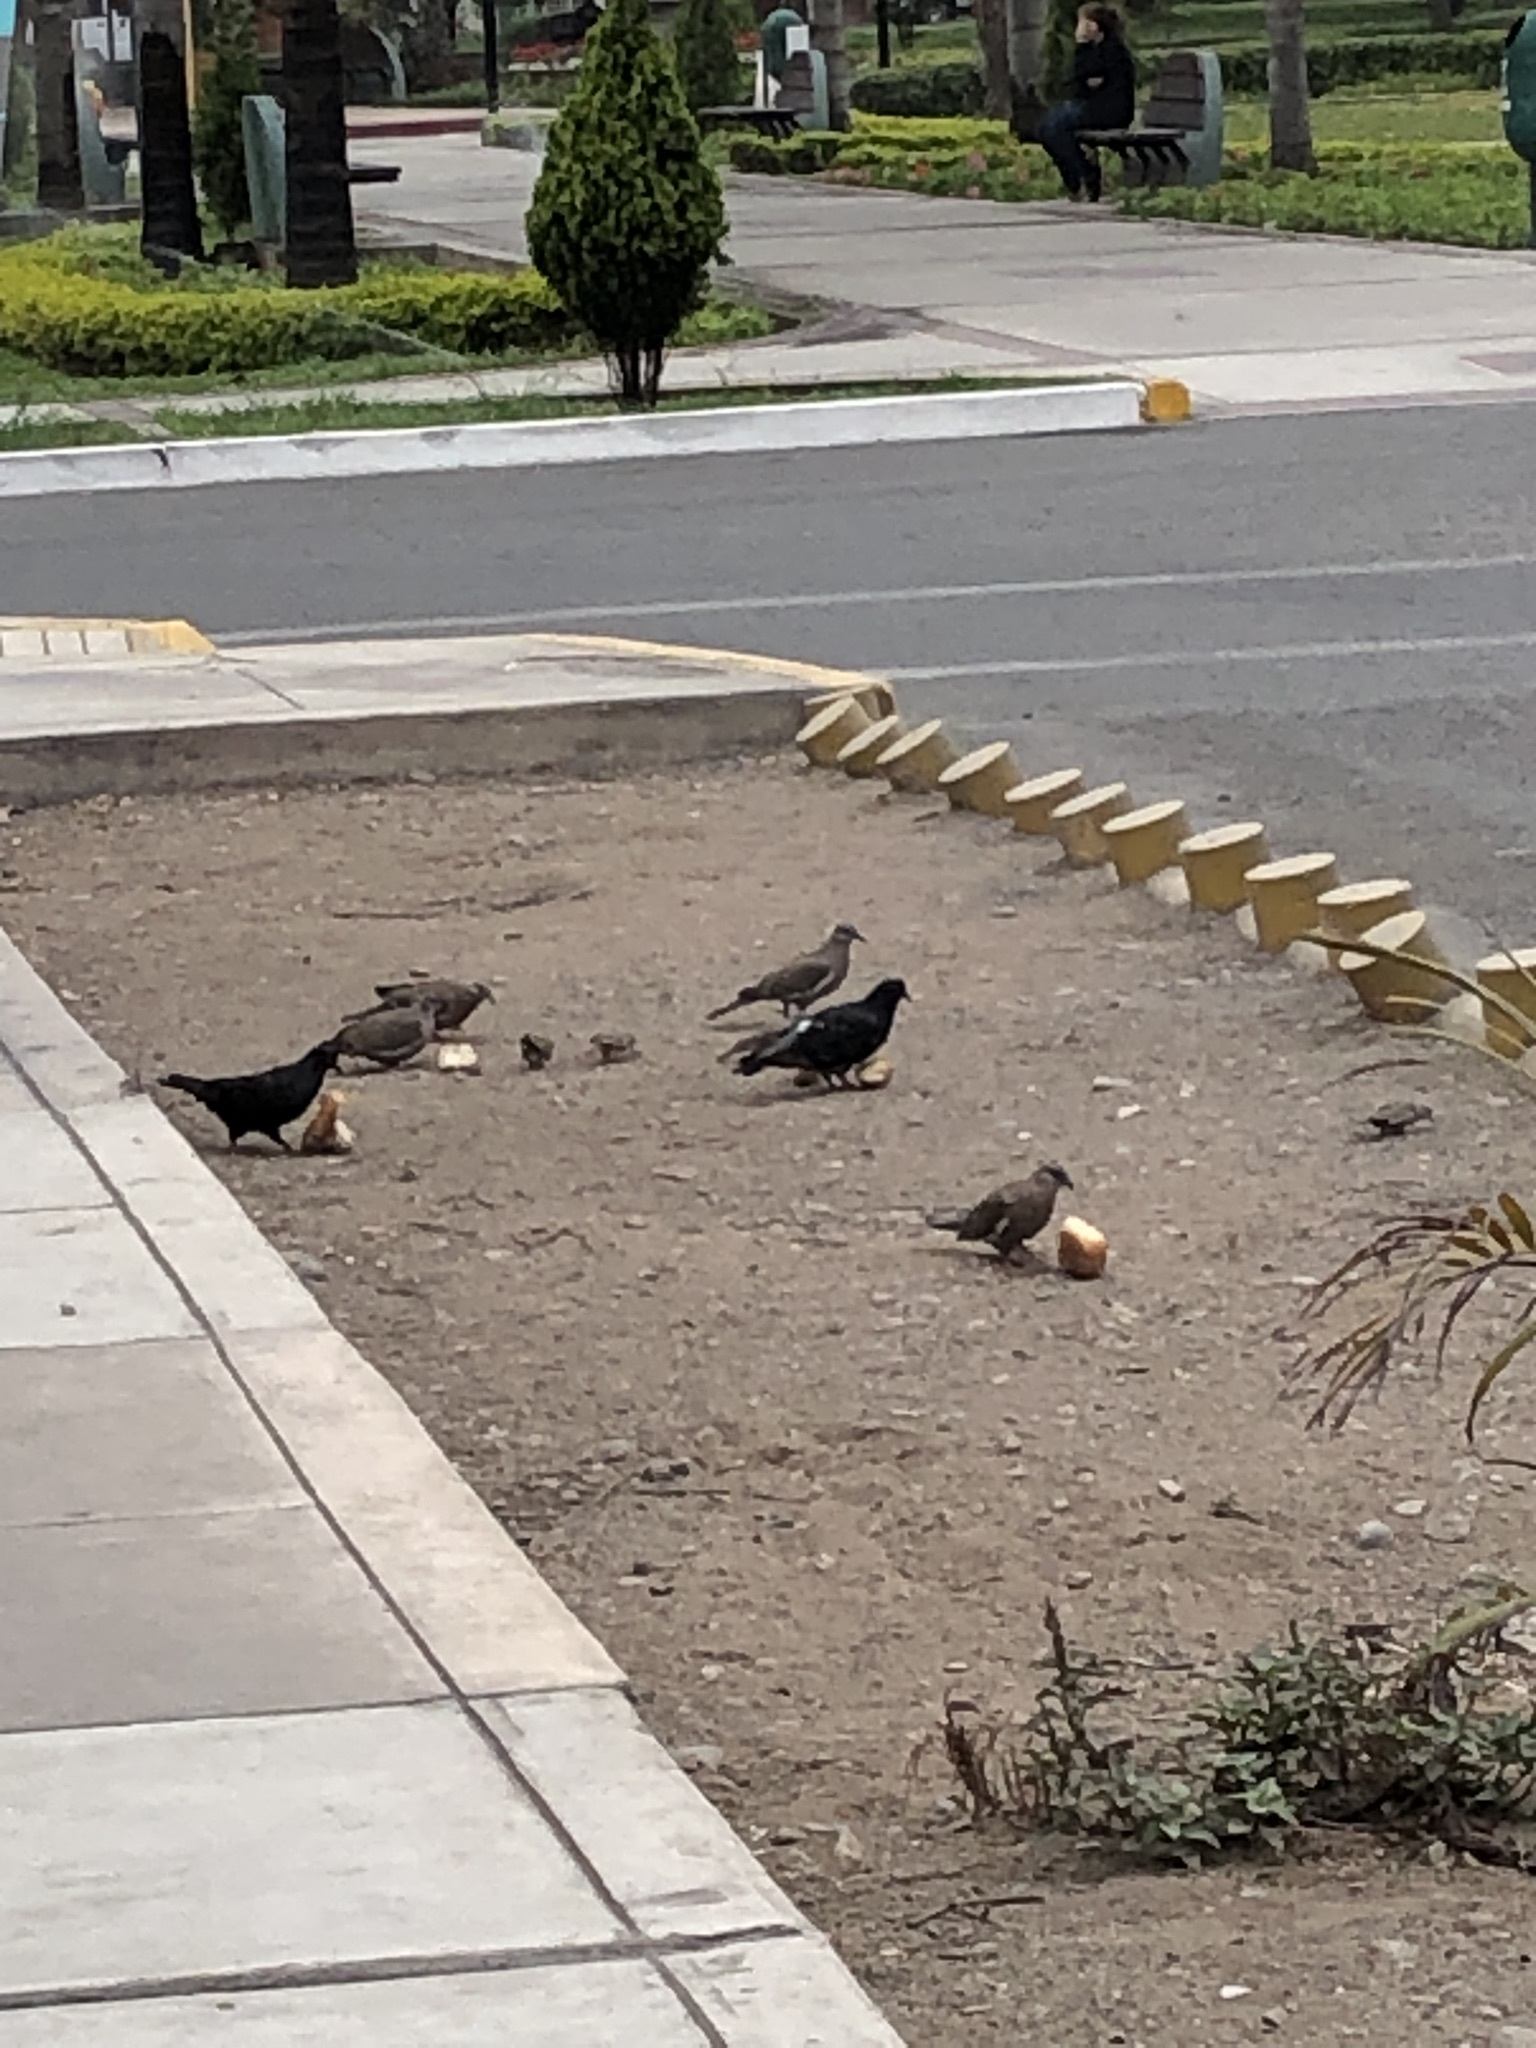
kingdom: Animalia
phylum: Chordata
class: Aves
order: Columbiformes
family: Columbidae
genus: Columba
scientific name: Columba livia
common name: Rock pigeon
